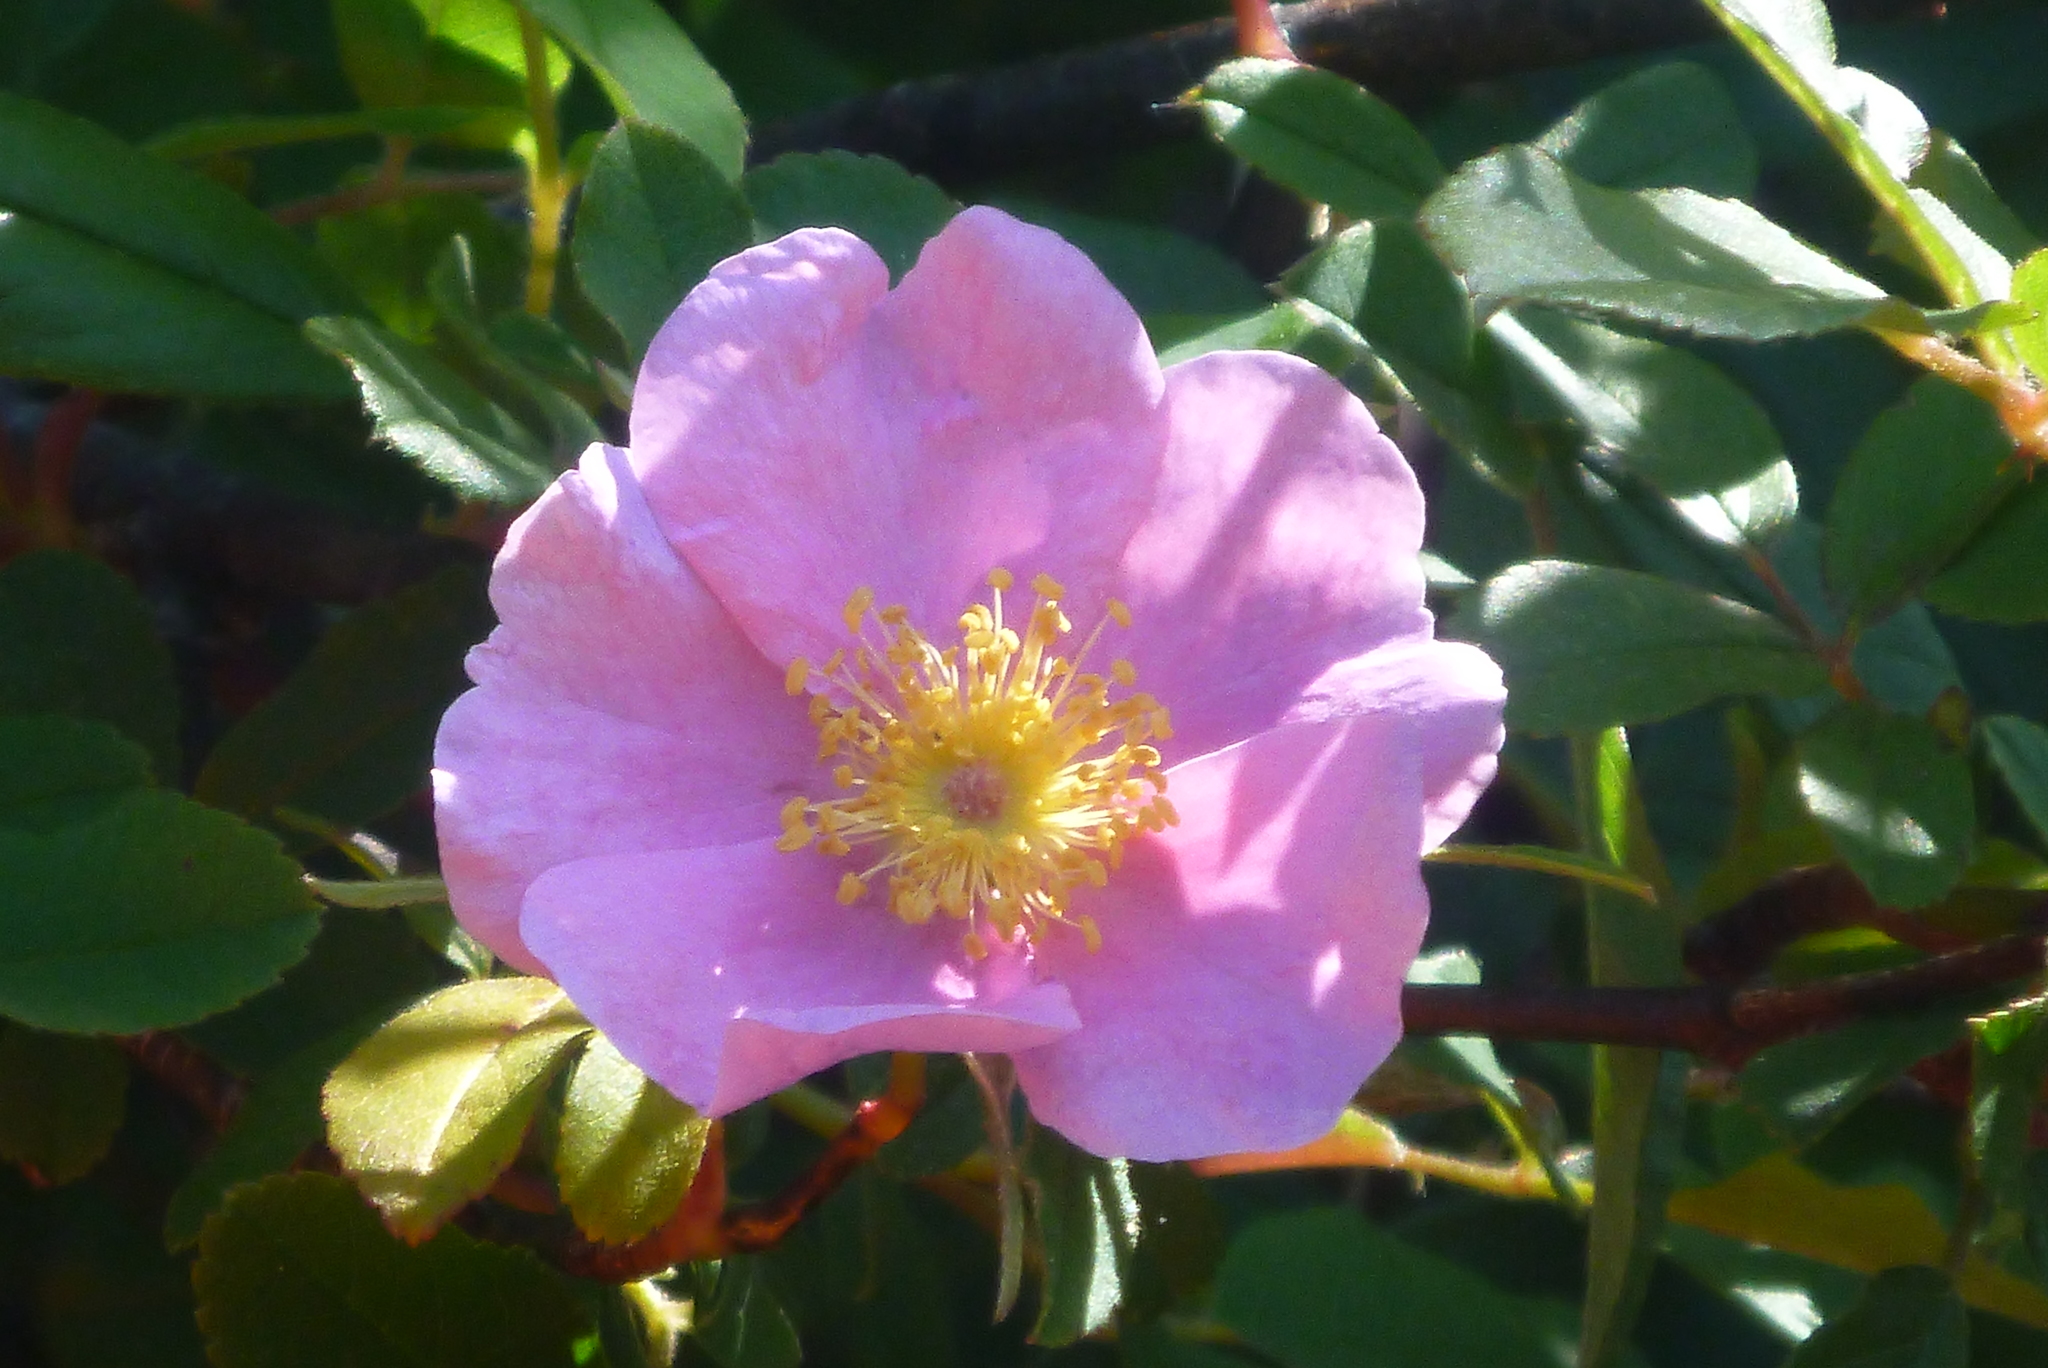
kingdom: Plantae
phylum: Tracheophyta
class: Magnoliopsida
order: Rosales
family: Rosaceae
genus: Rosa
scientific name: Rosa palustris
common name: Swamp rose
